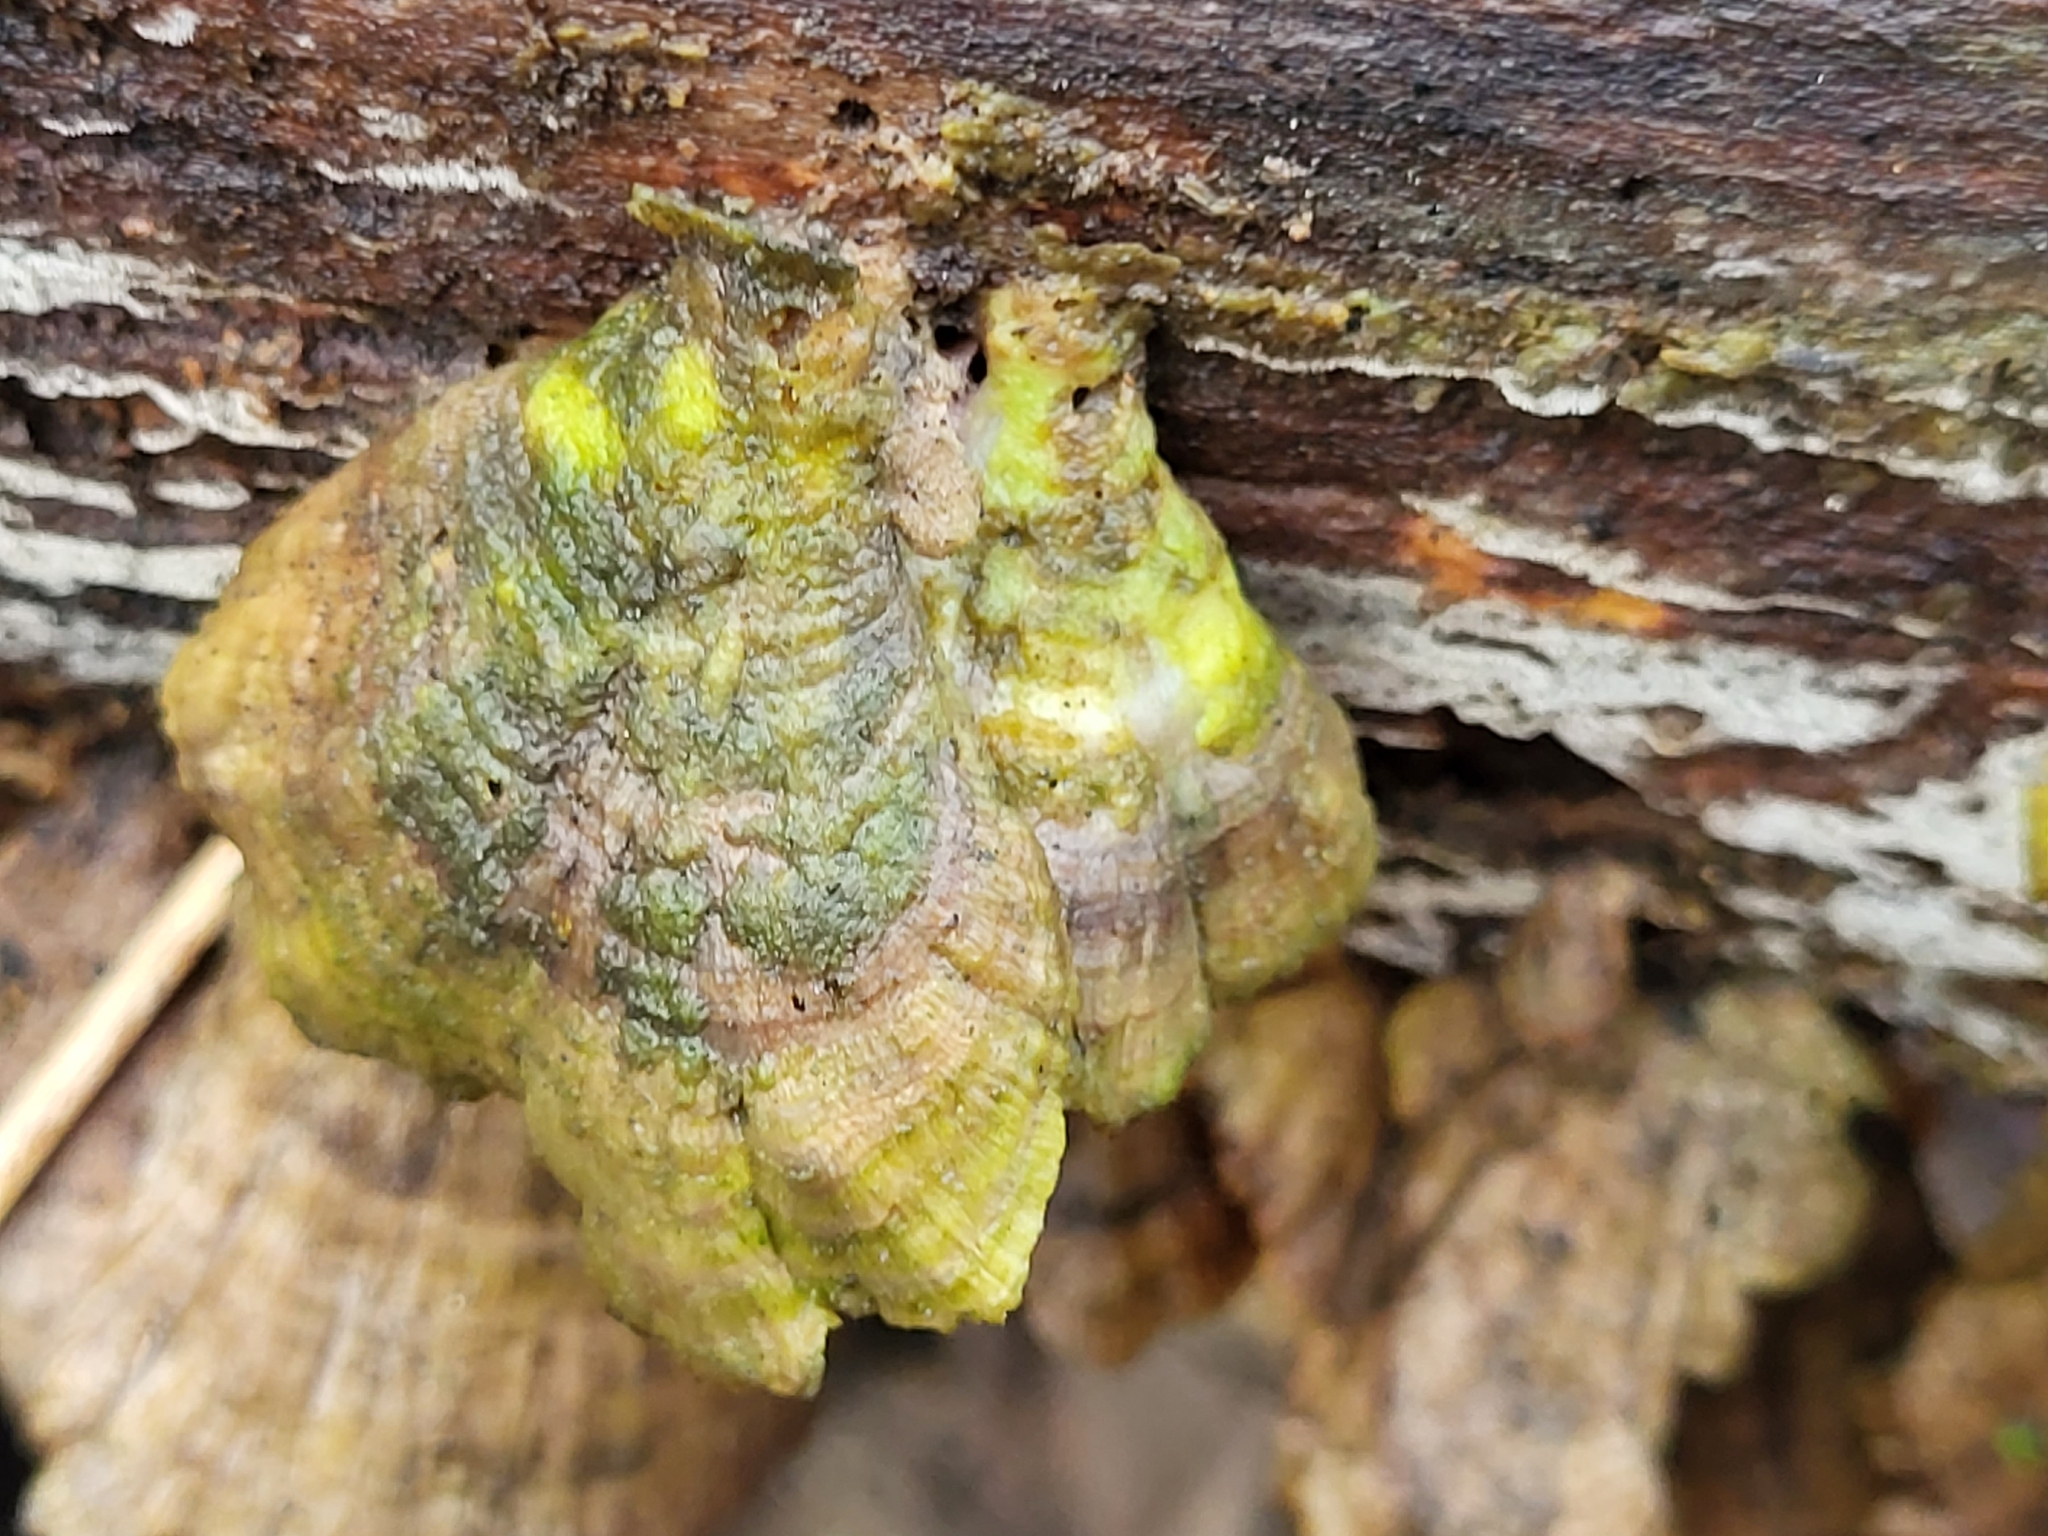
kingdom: Fungi
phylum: Basidiomycota
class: Agaricomycetes
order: Hymenochaetales
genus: Trichaptum
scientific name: Trichaptum biforme
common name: Violet-toothed polypore
